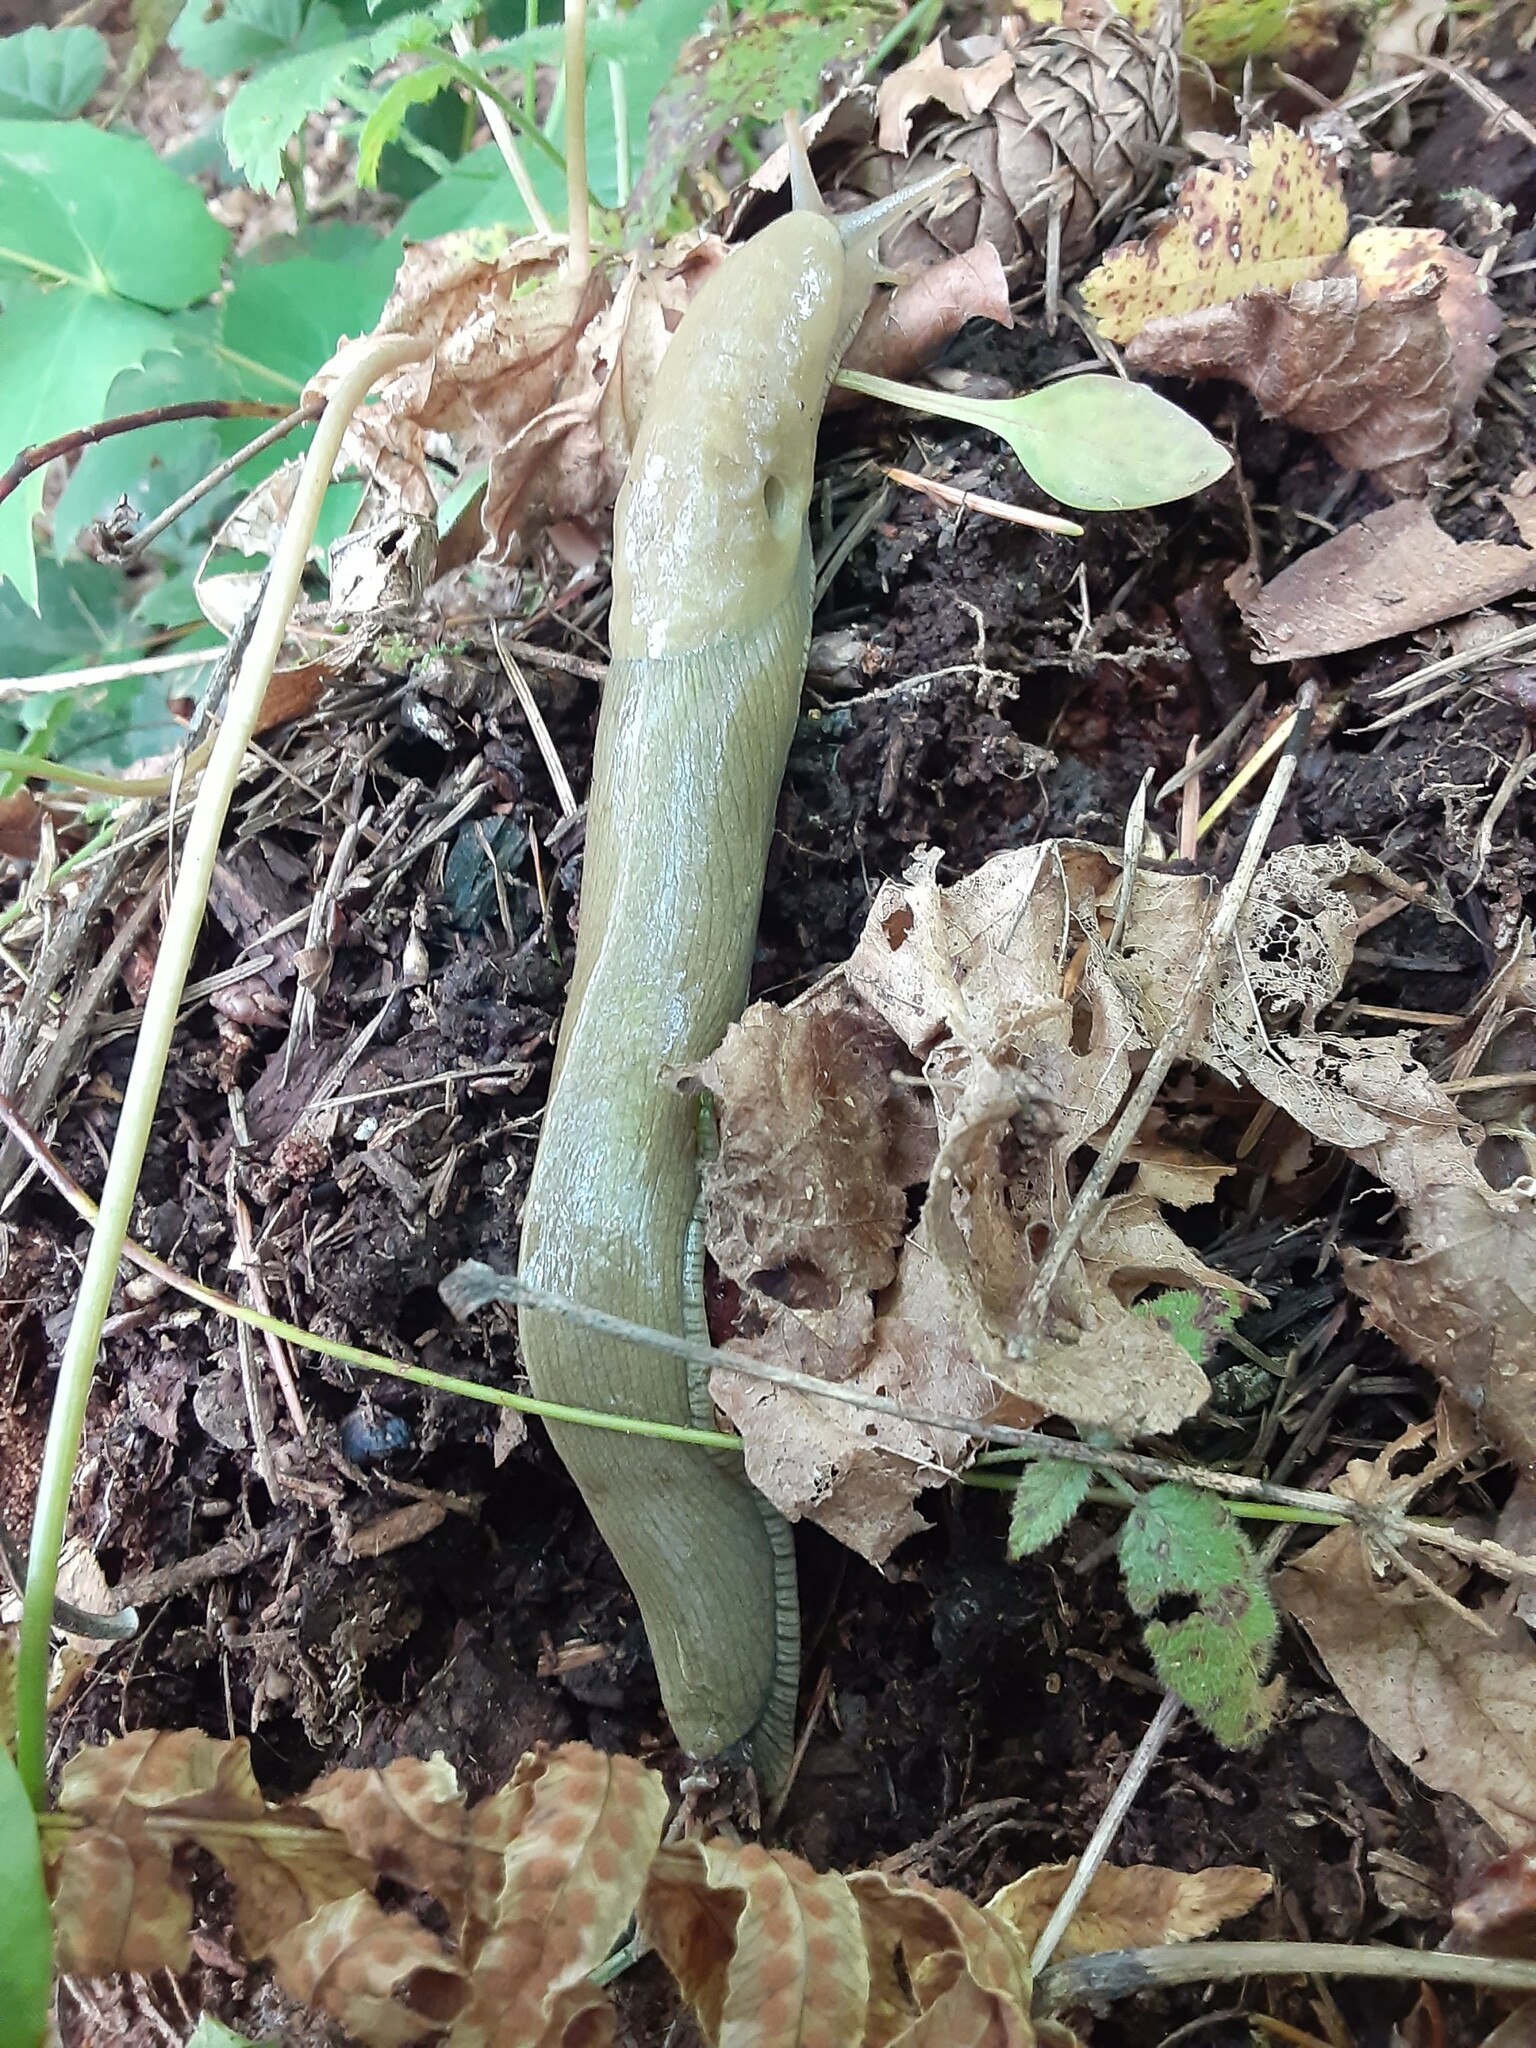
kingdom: Animalia
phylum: Mollusca
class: Gastropoda
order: Stylommatophora
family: Ariolimacidae
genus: Ariolimax
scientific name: Ariolimax columbianus
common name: Pacific banana slug
